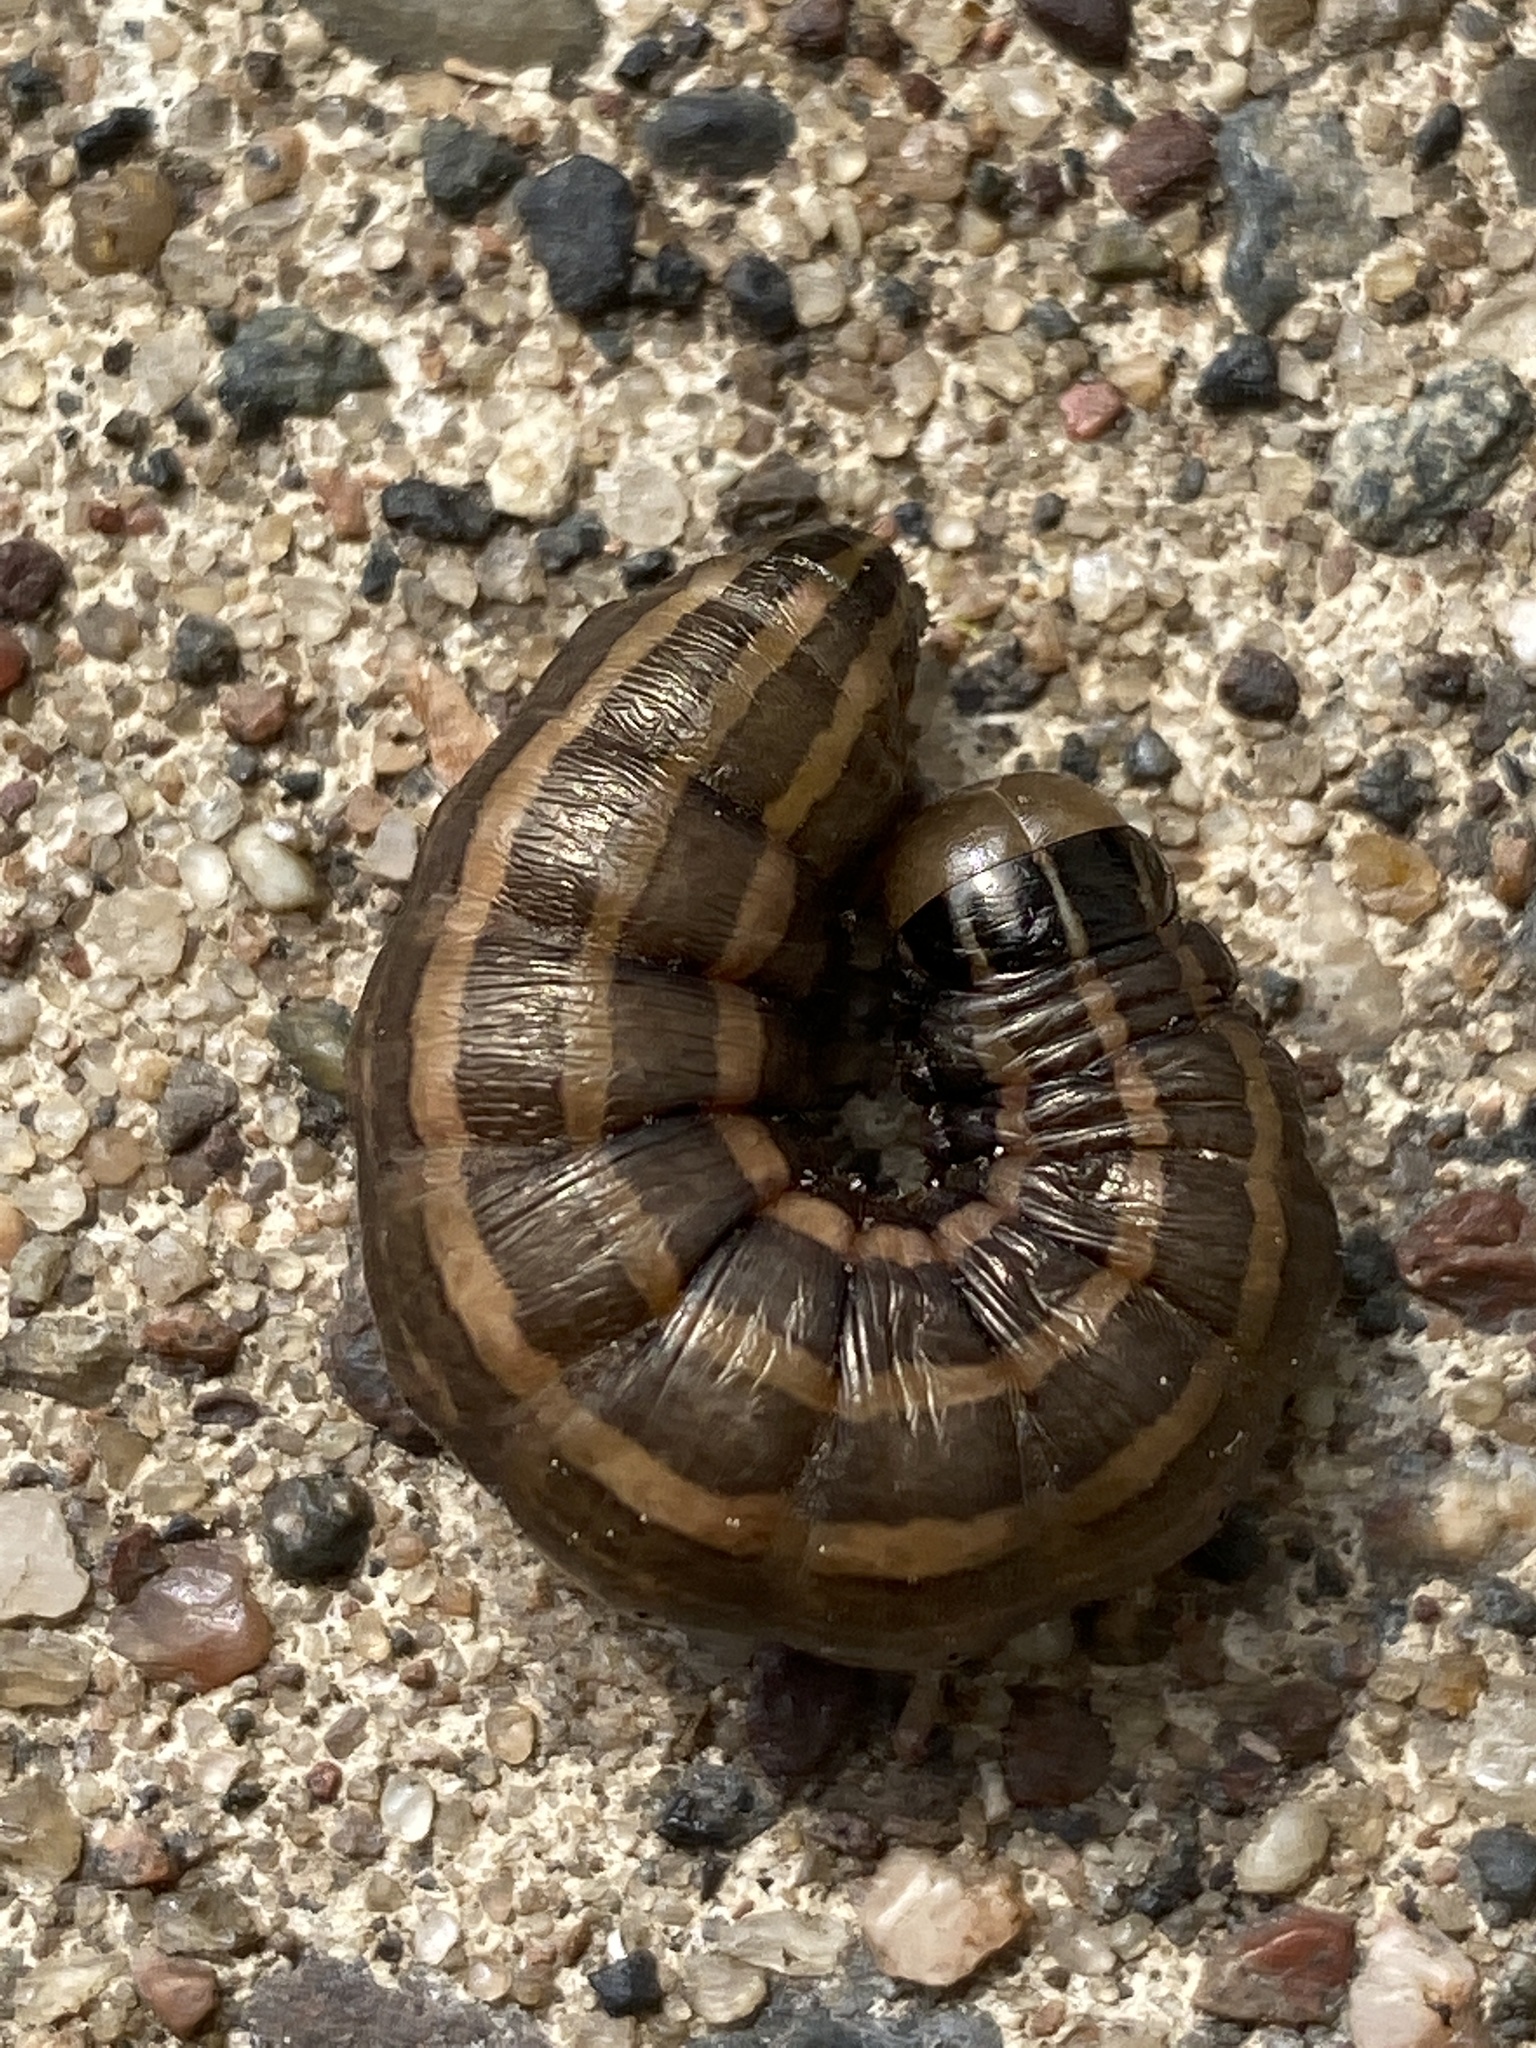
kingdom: Animalia
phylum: Arthropoda
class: Insecta
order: Lepidoptera
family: Noctuidae
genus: Nephelodes
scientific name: Nephelodes minians
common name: Bronzed cutworm
